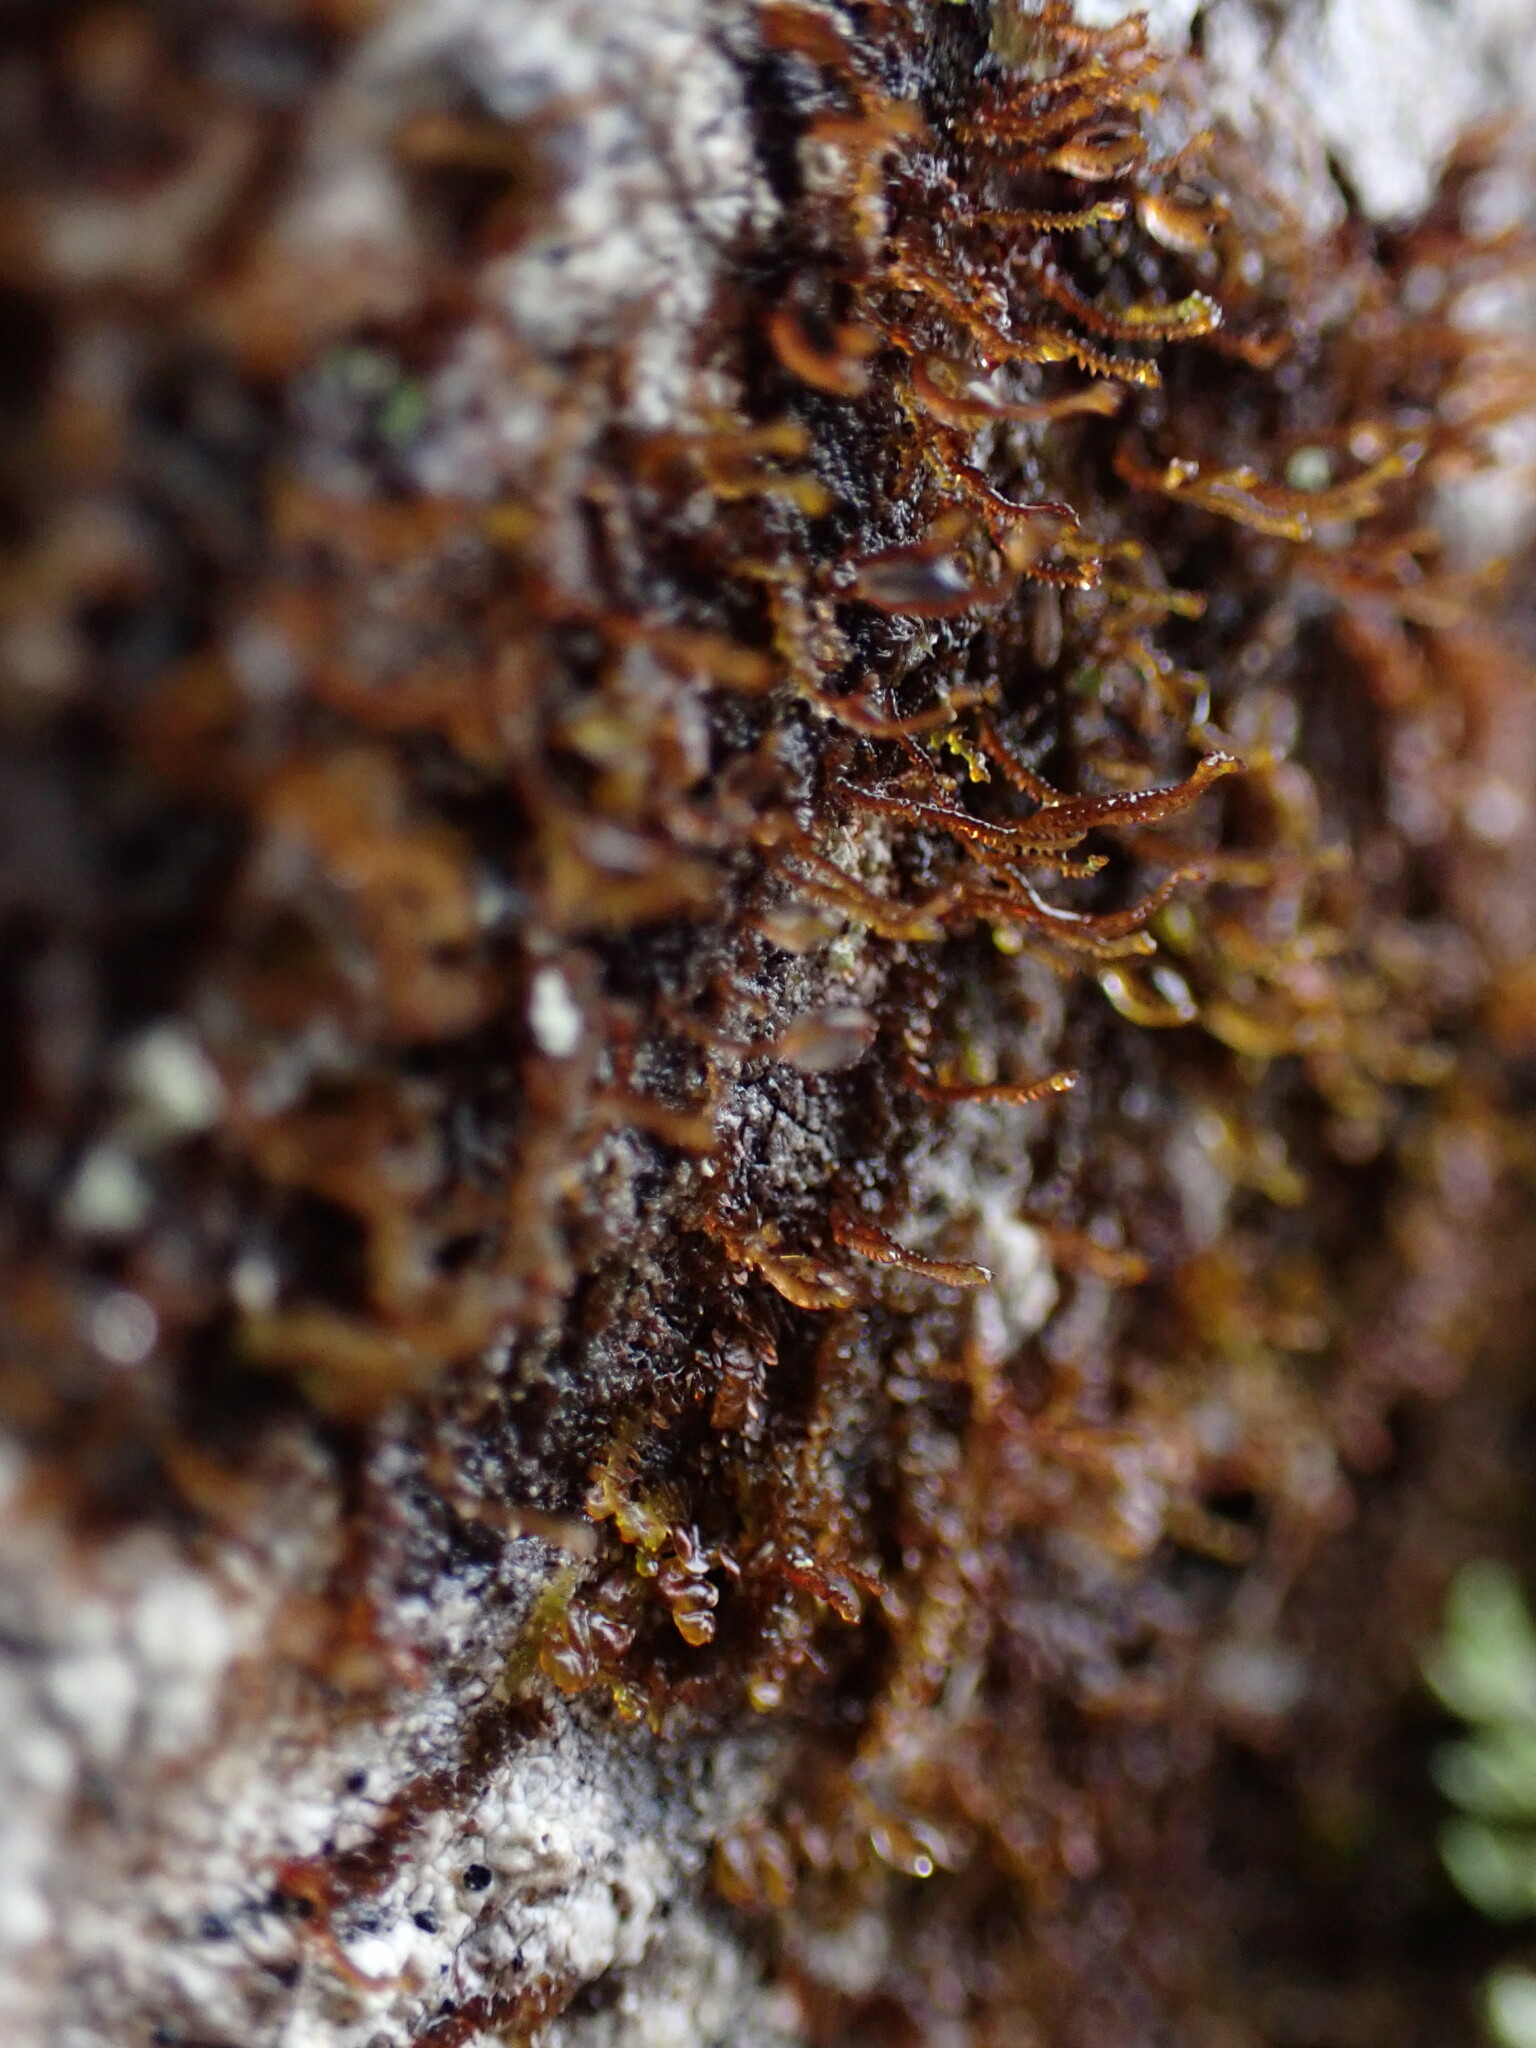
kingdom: Plantae
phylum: Marchantiophyta
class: Jungermanniopsida
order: Porellales
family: Frullaniaceae
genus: Frullania
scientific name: Frullania bolanderi
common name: Bolander s scalewort
